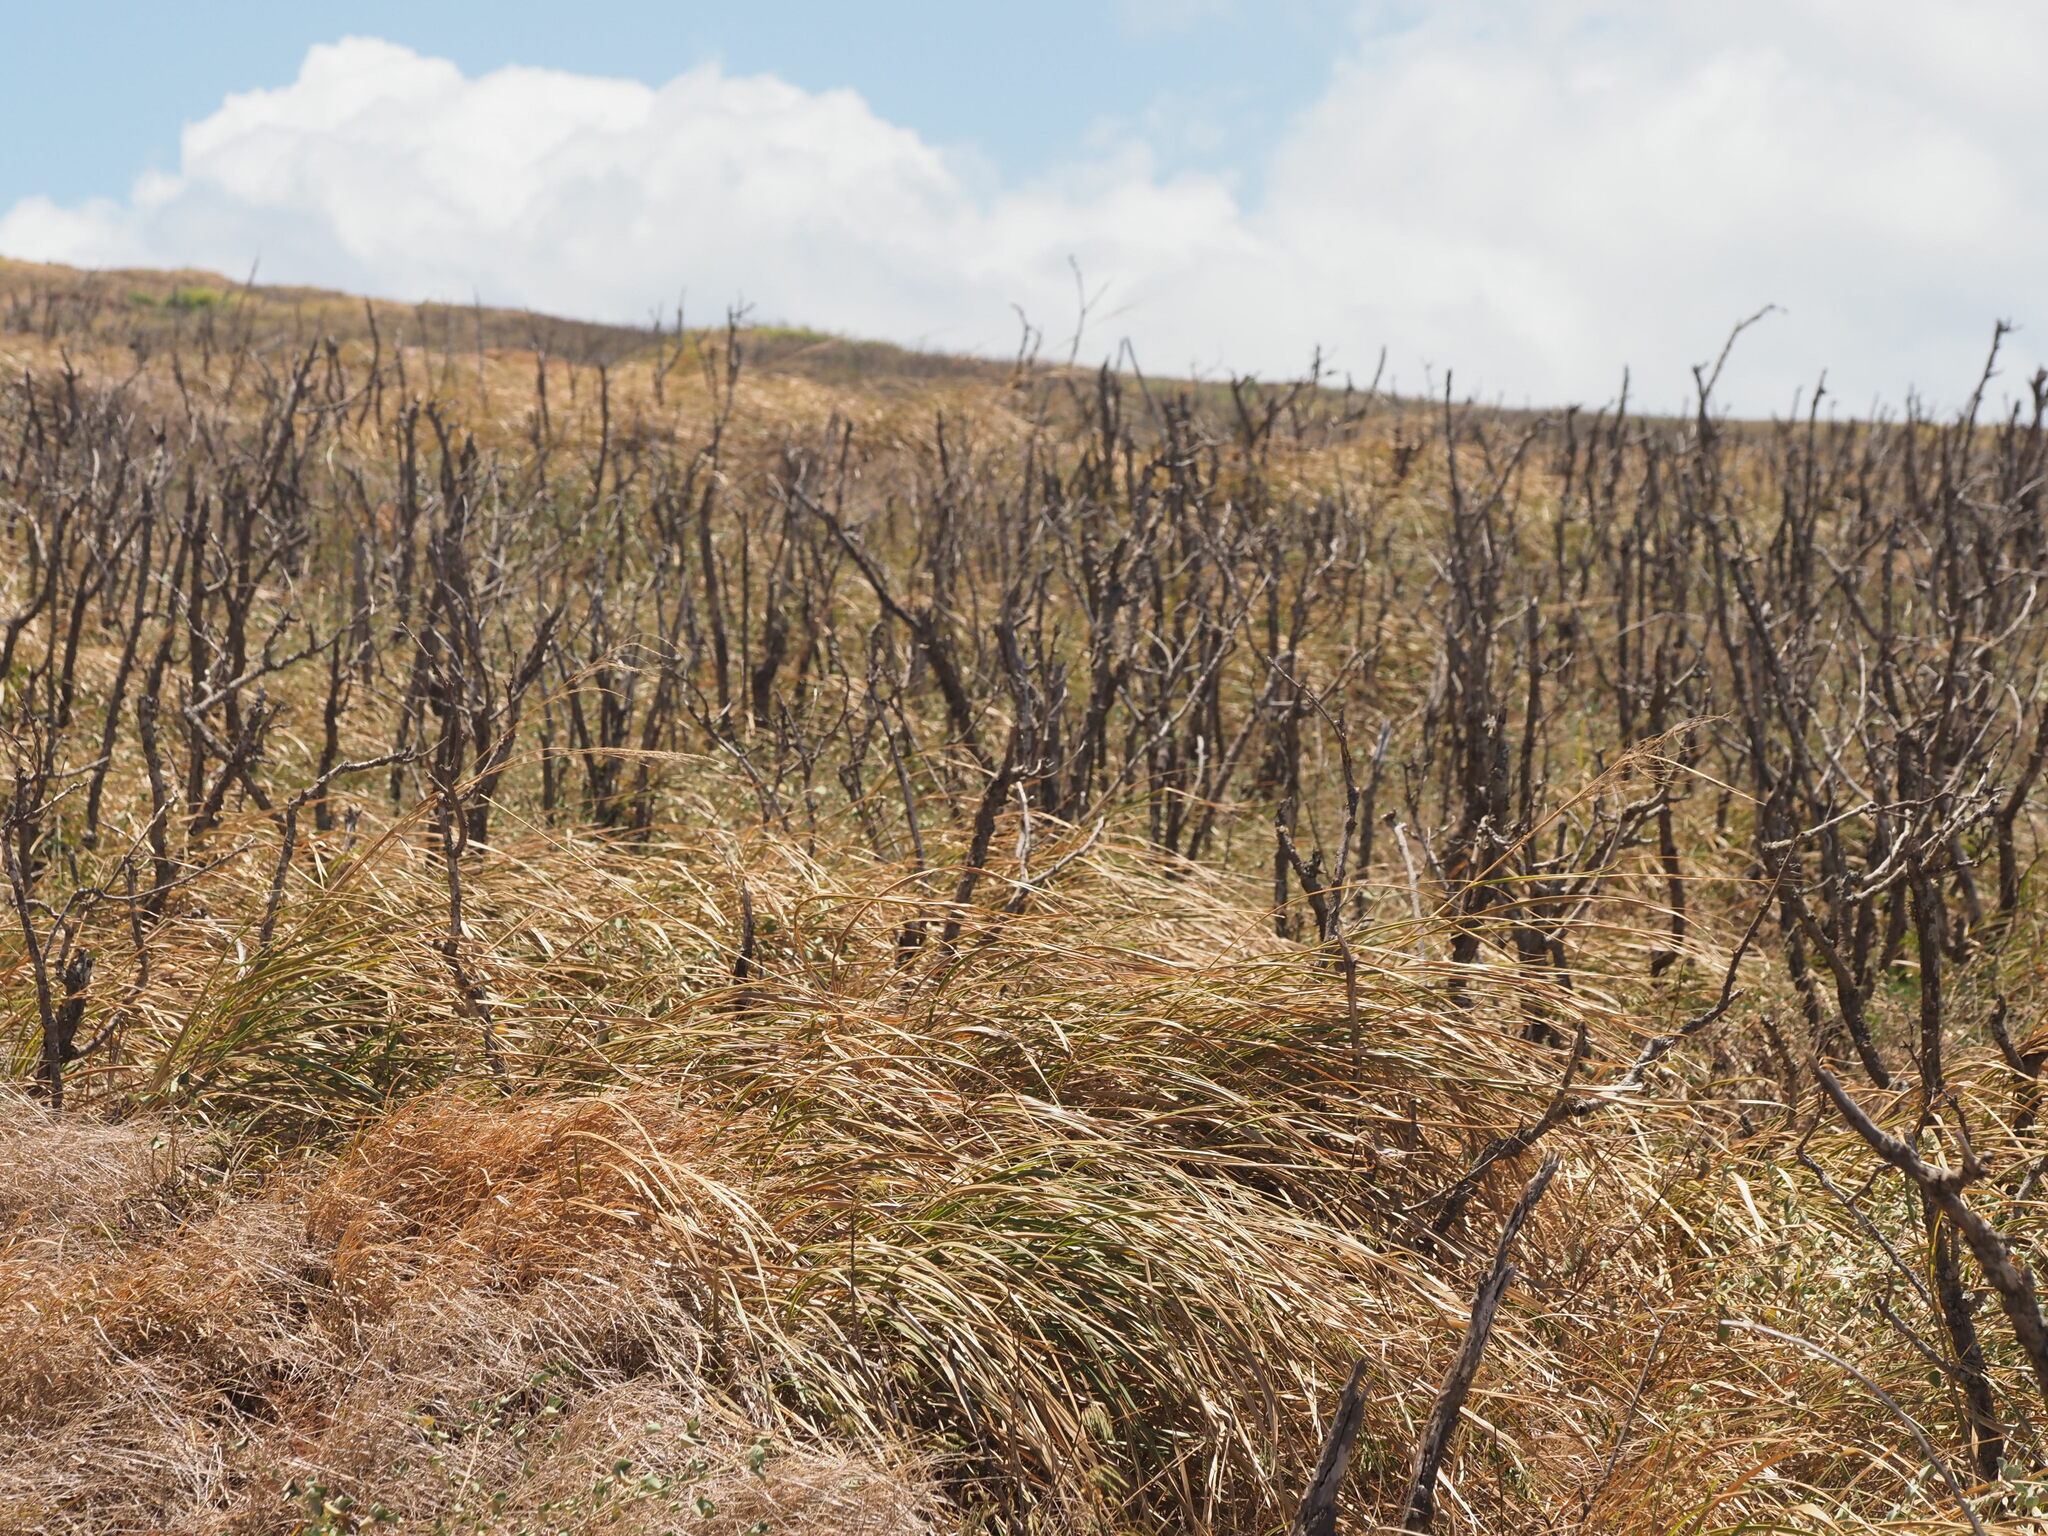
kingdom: Plantae
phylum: Tracheophyta
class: Liliopsida
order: Poales
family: Poaceae
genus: Megathyrsus
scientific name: Megathyrsus maximus
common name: Guineagrass
